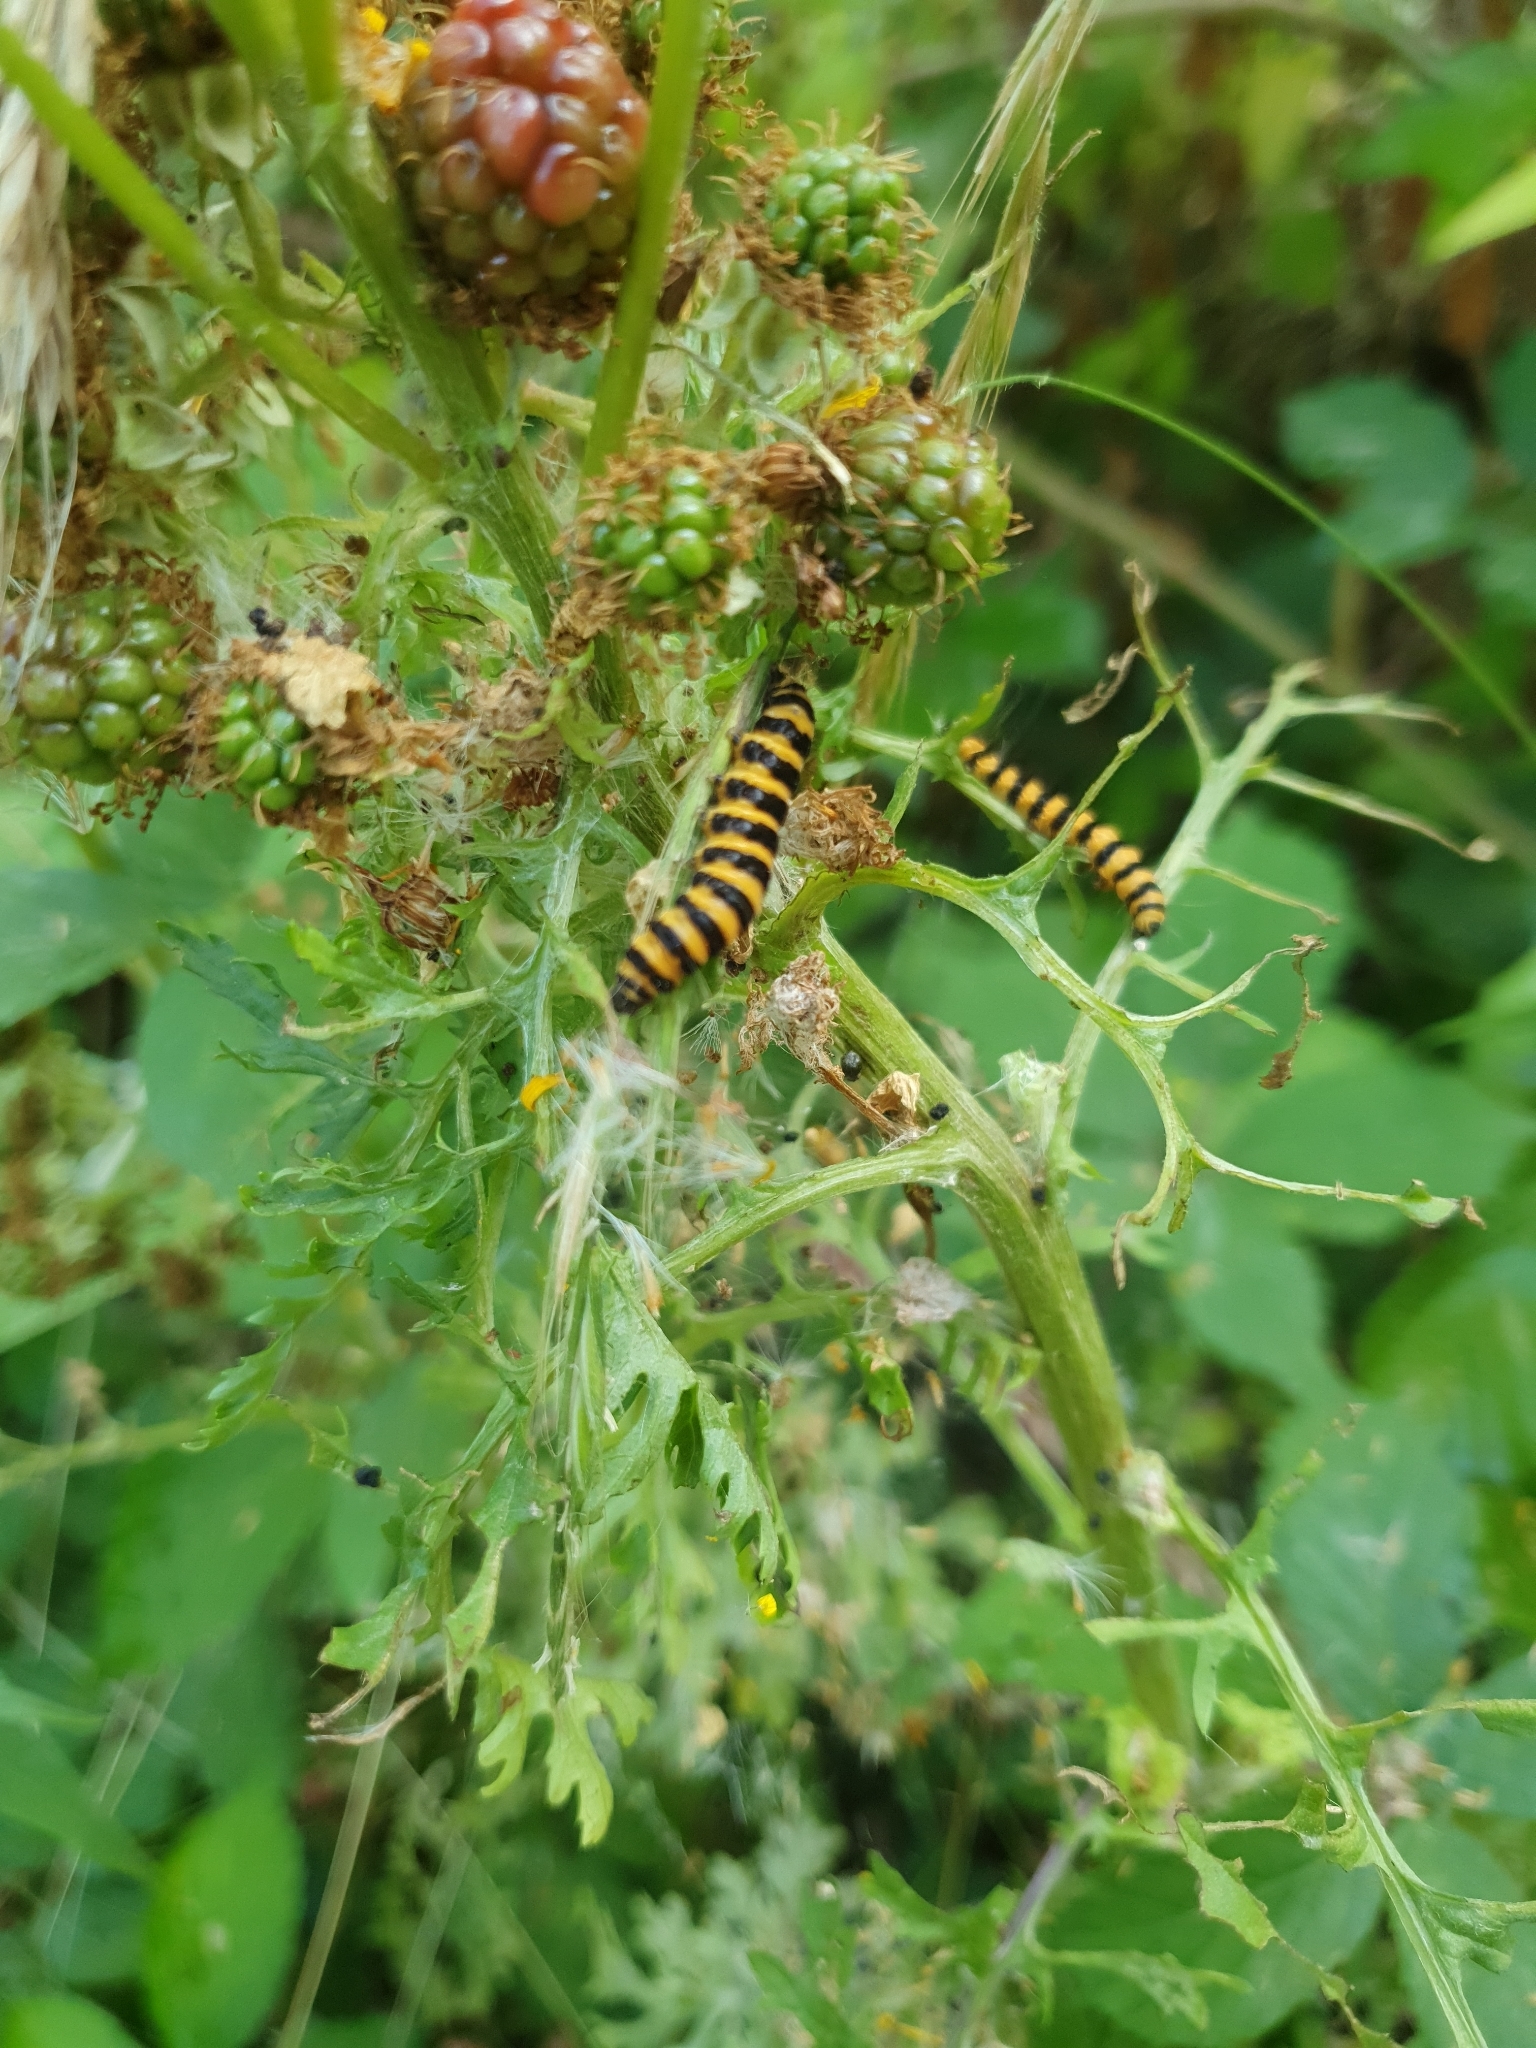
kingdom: Animalia
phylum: Arthropoda
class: Insecta
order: Lepidoptera
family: Erebidae
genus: Tyria
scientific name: Tyria jacobaeae
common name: Cinnabar
